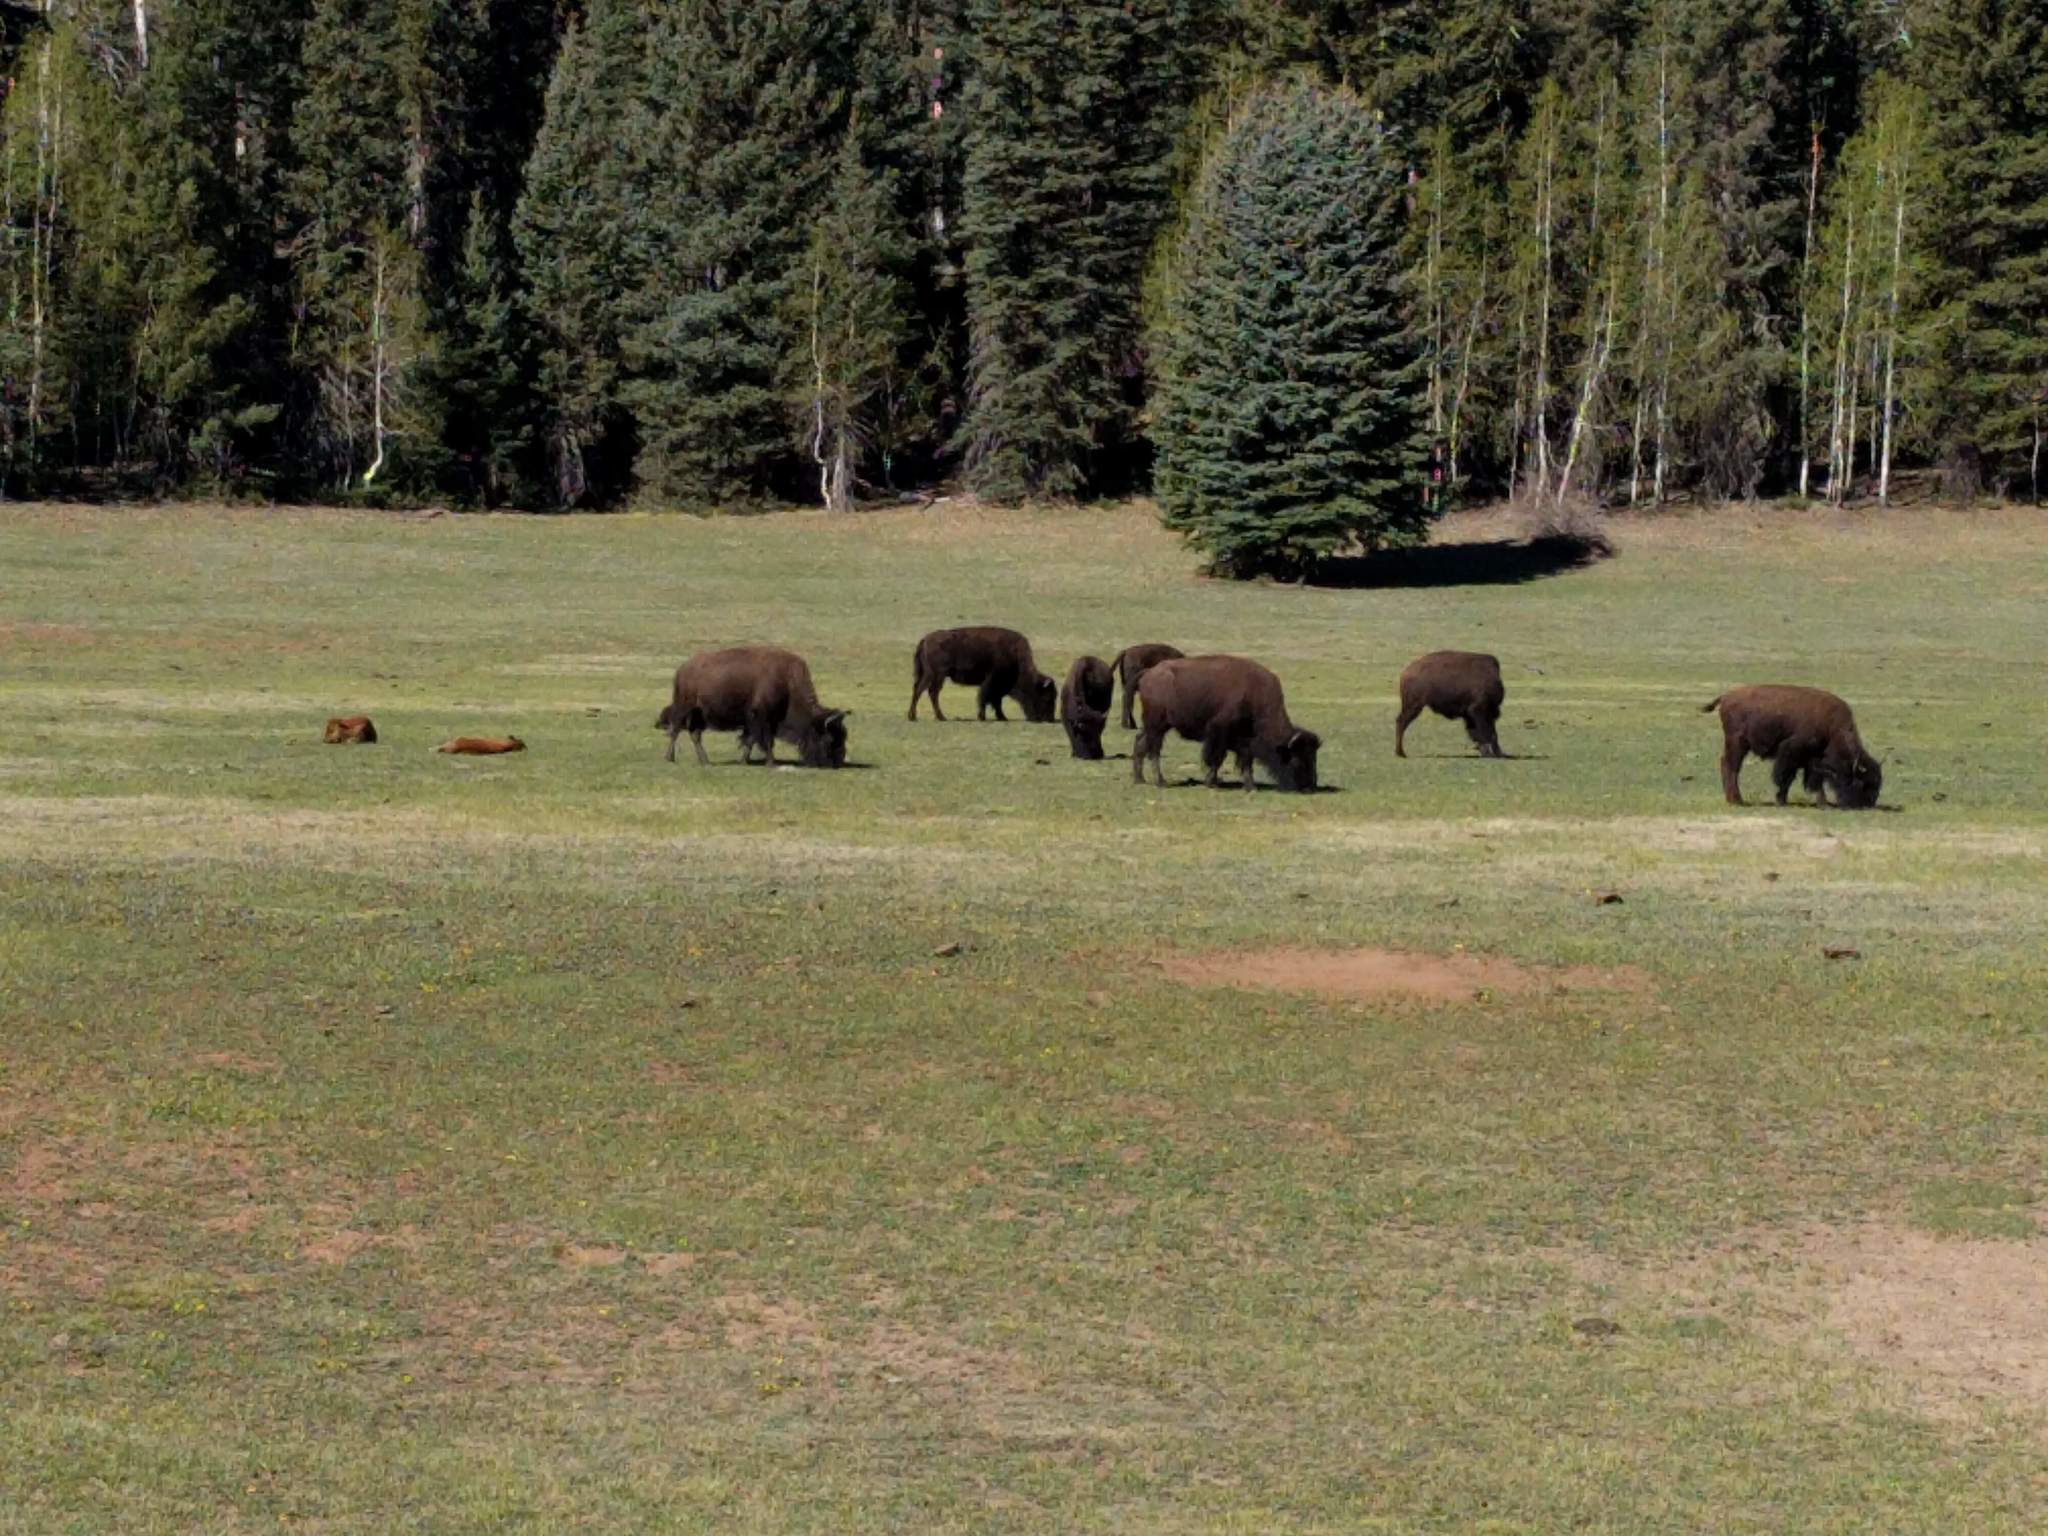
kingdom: Animalia
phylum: Chordata
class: Mammalia
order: Artiodactyla
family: Bovidae
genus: Bison
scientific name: Bison bison
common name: American bison
